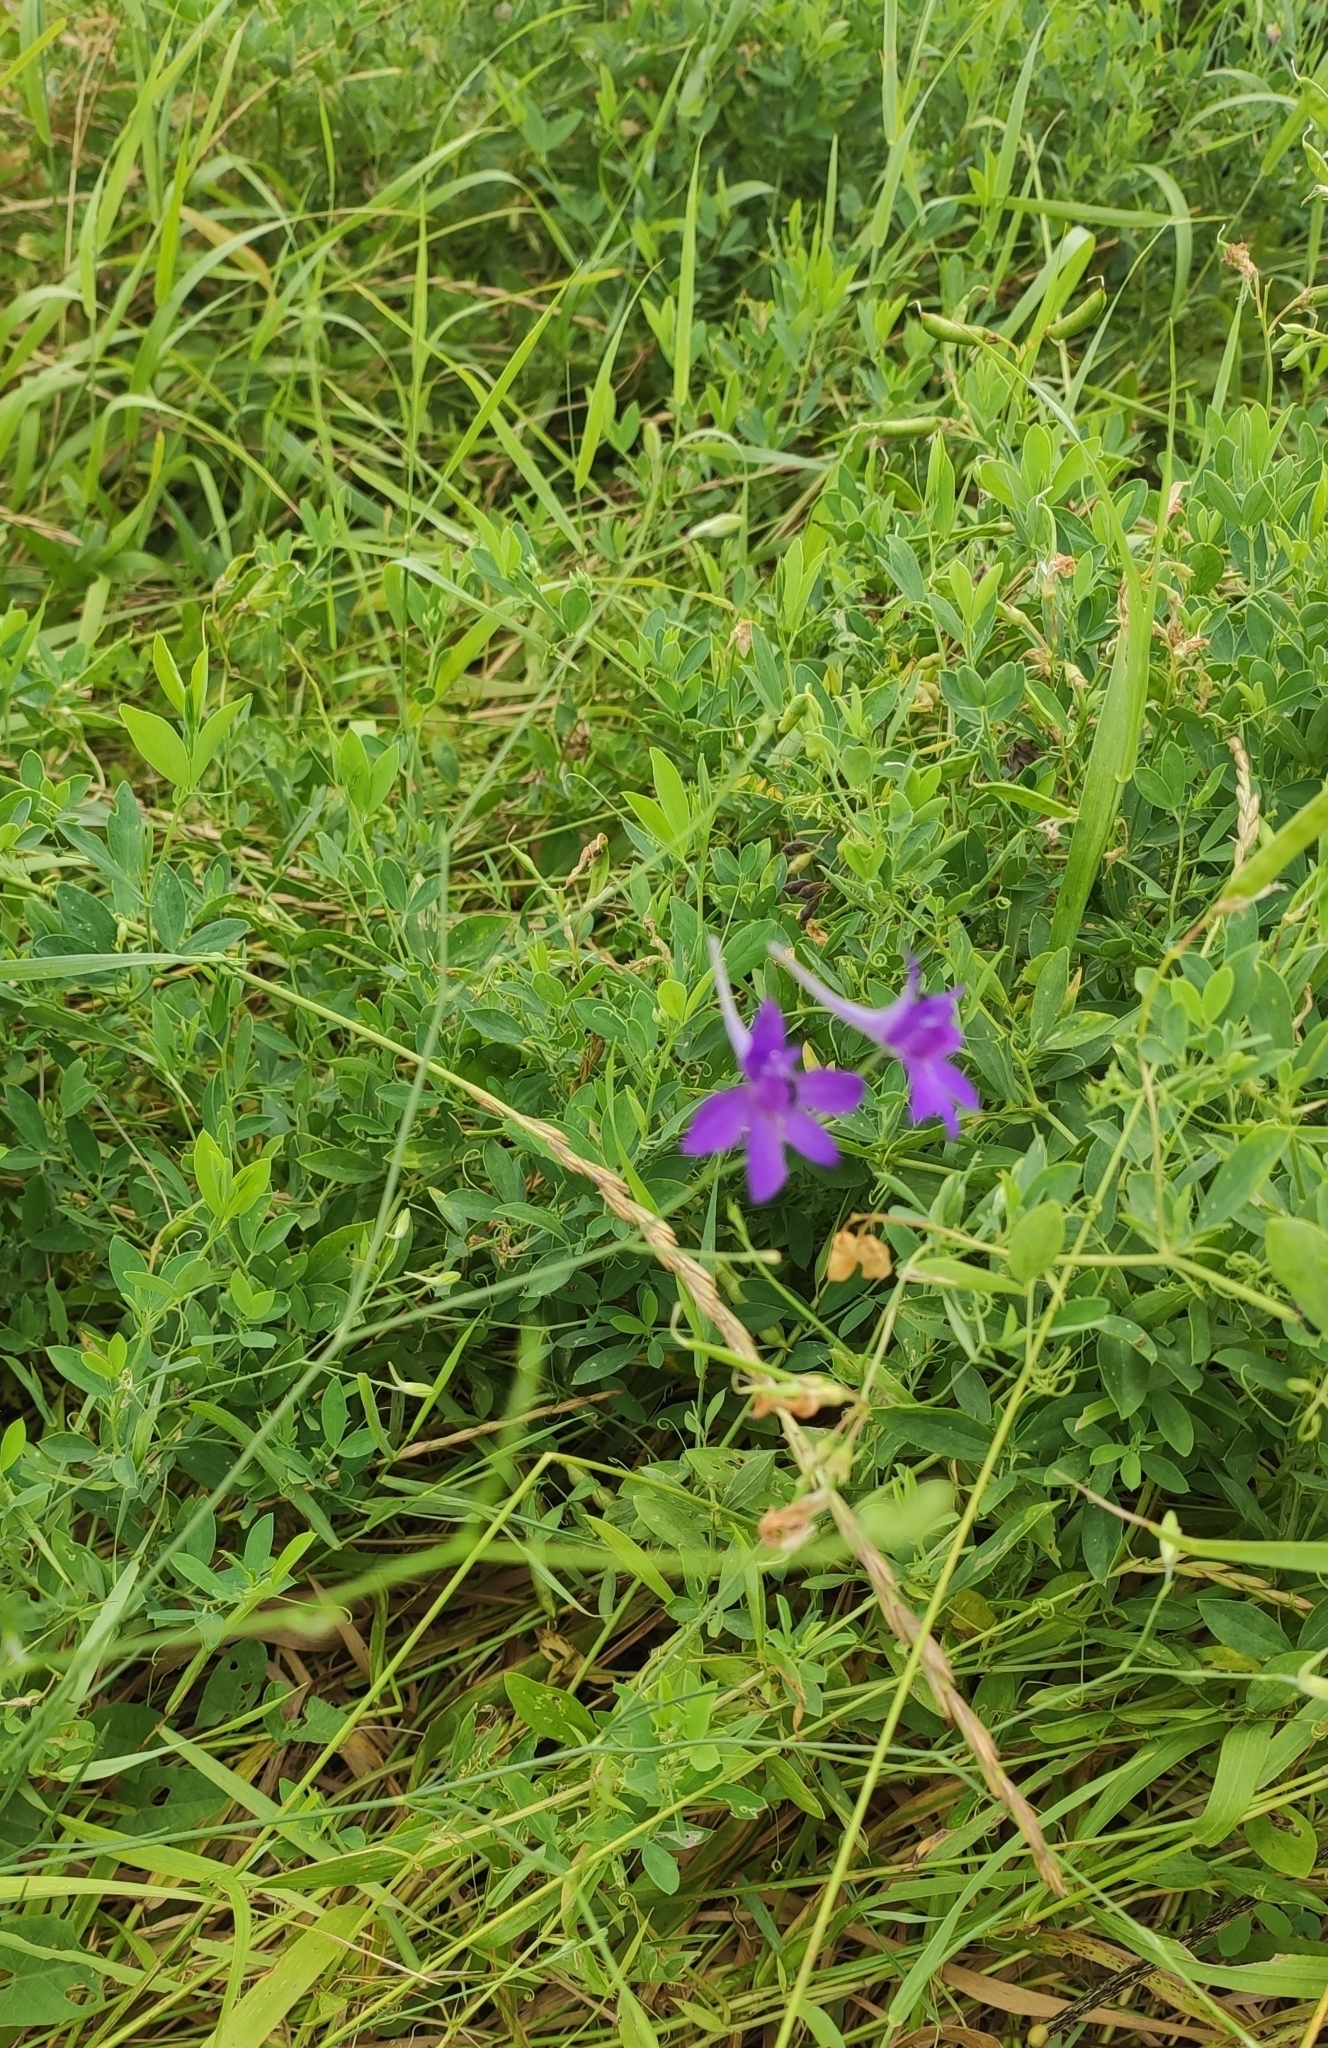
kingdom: Plantae
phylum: Tracheophyta
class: Magnoliopsida
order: Ranunculales
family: Ranunculaceae
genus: Delphinium
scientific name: Delphinium consolida
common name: Branching larkspur
